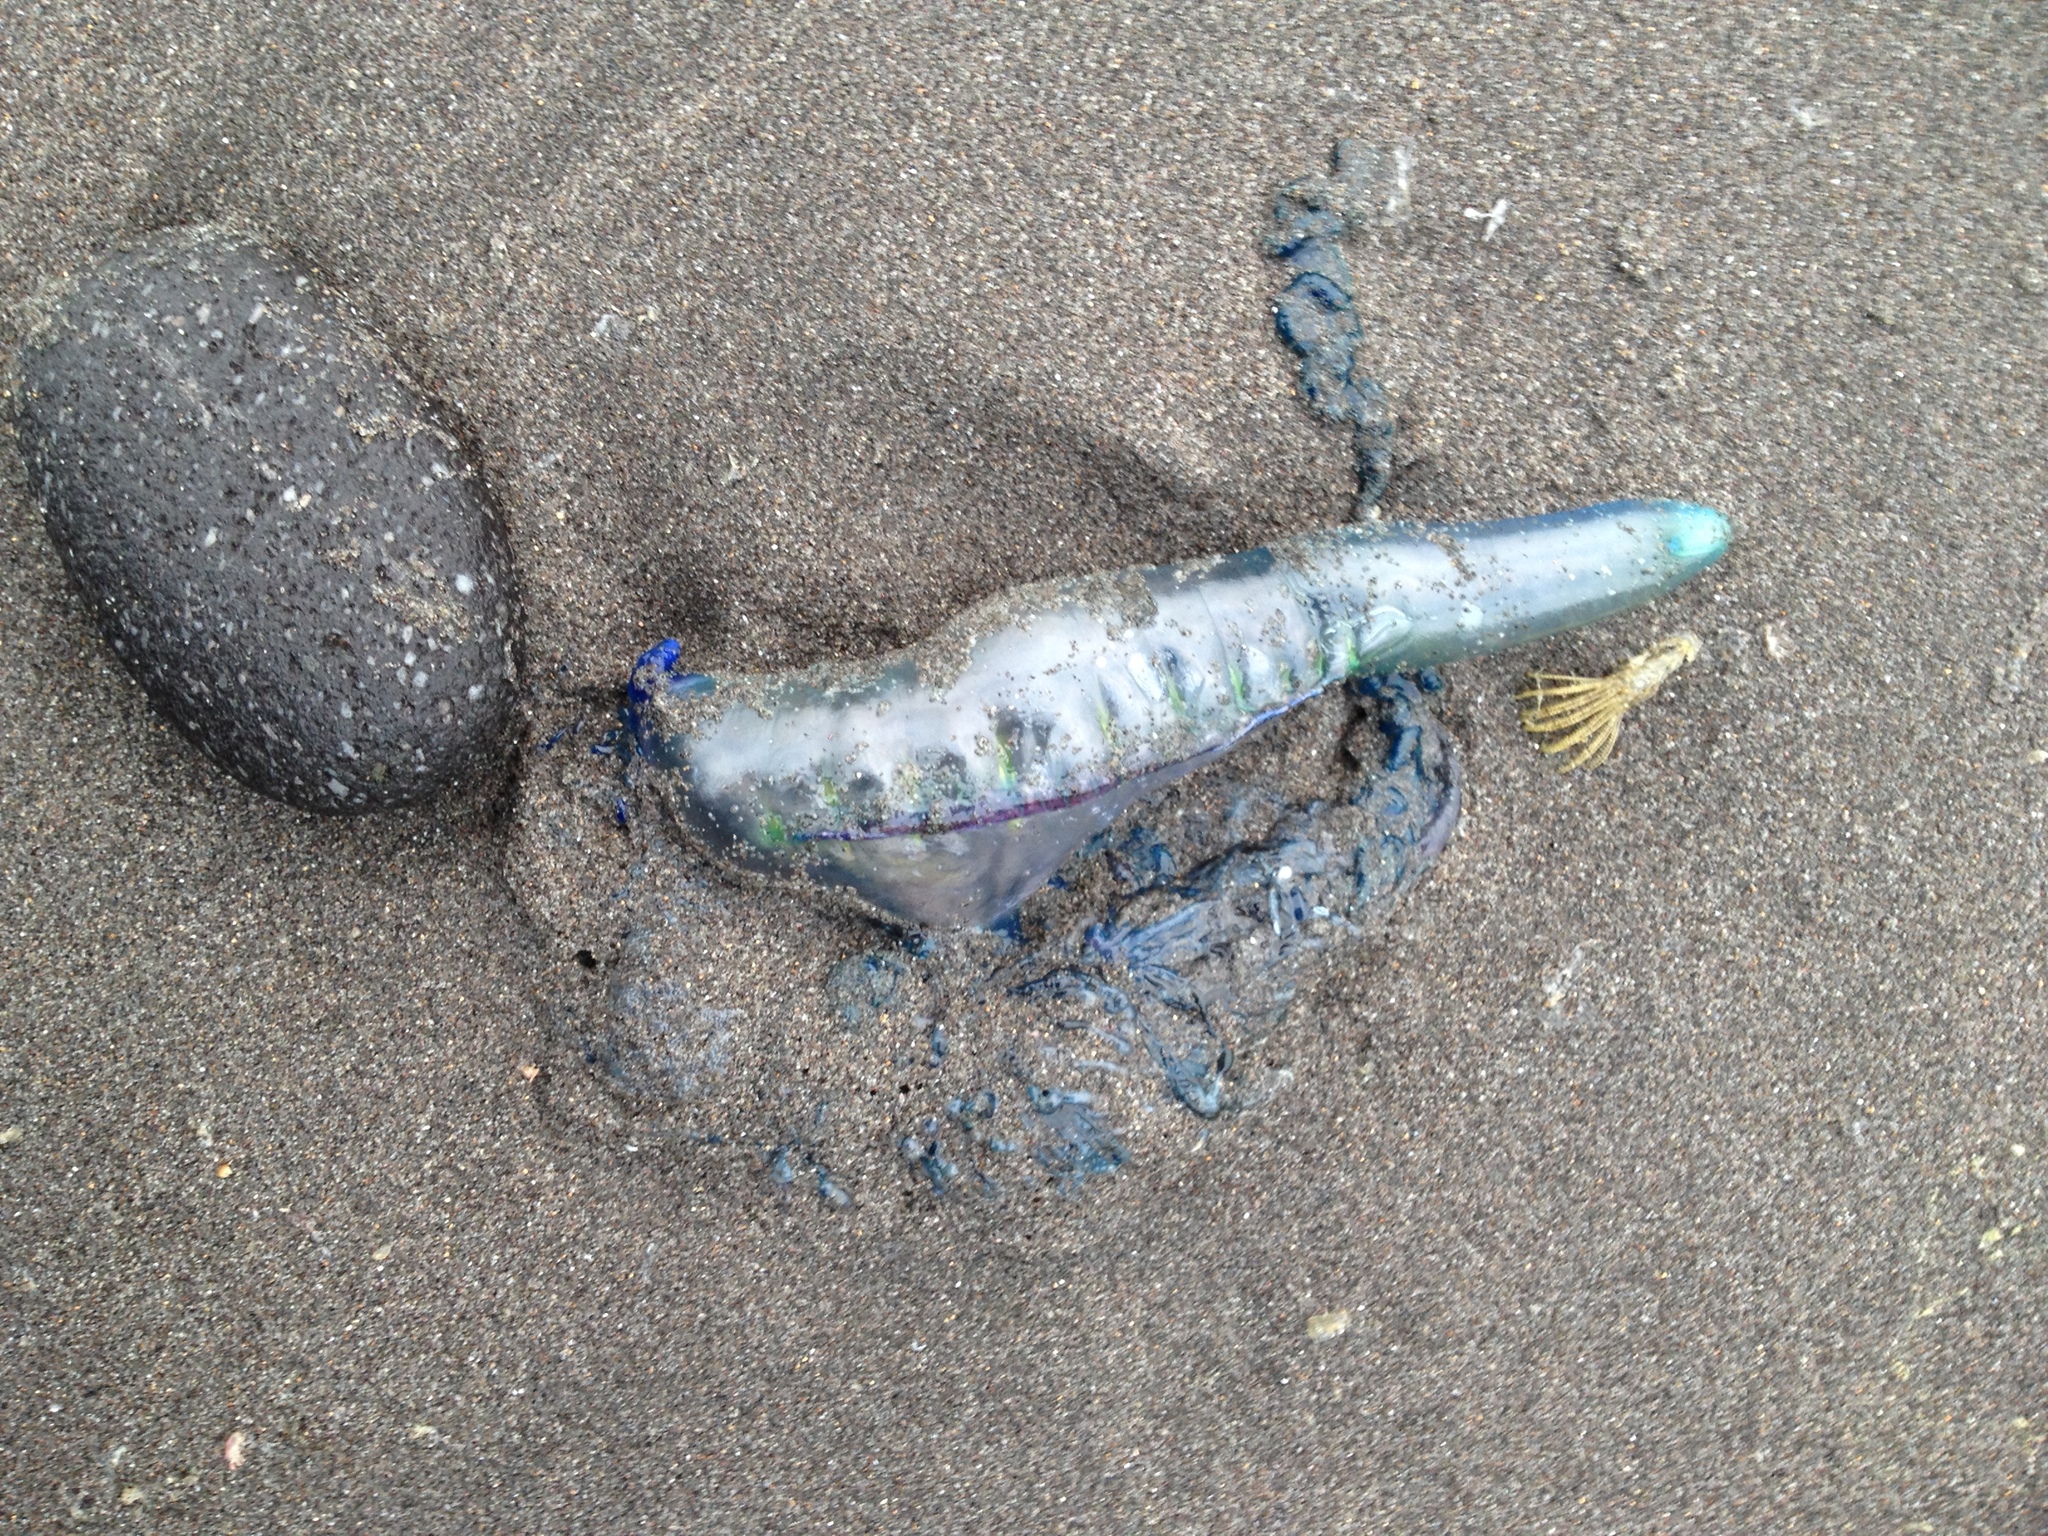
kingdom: Animalia
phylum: Cnidaria
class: Hydrozoa
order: Siphonophorae
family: Physaliidae
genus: Physalia
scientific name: Physalia physalis
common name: Portuguese man-of-war
